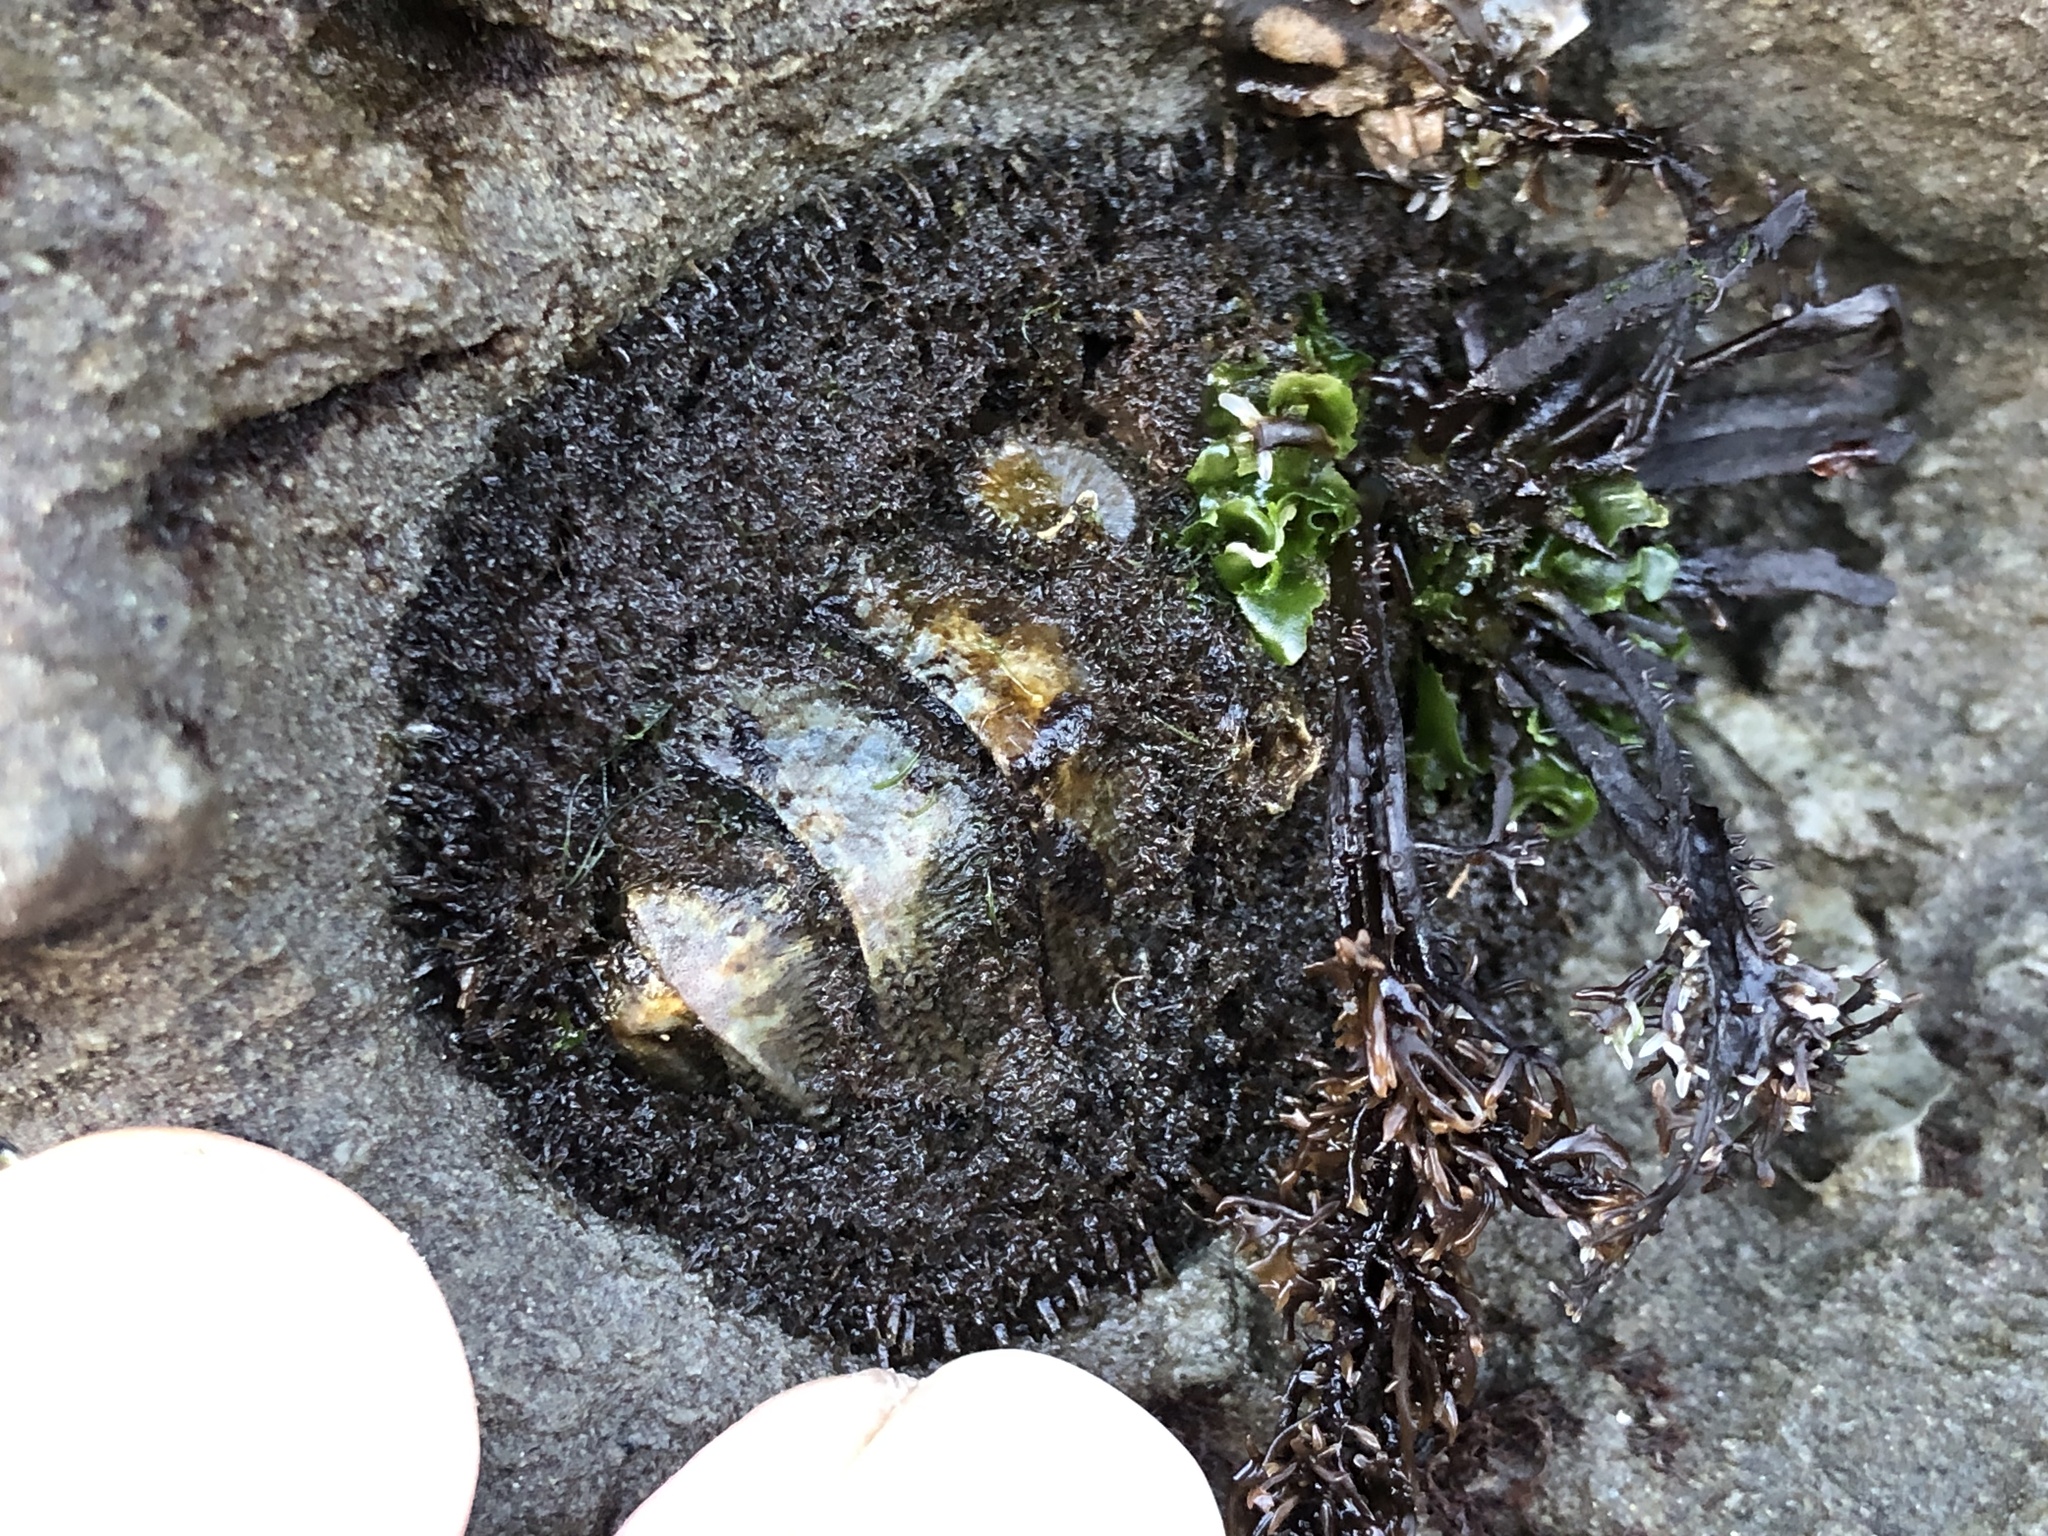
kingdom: Animalia
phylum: Mollusca
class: Polyplacophora
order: Chitonida
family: Mopaliidae
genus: Mopalia
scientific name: Mopalia muscosa
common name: Mossy chiton
